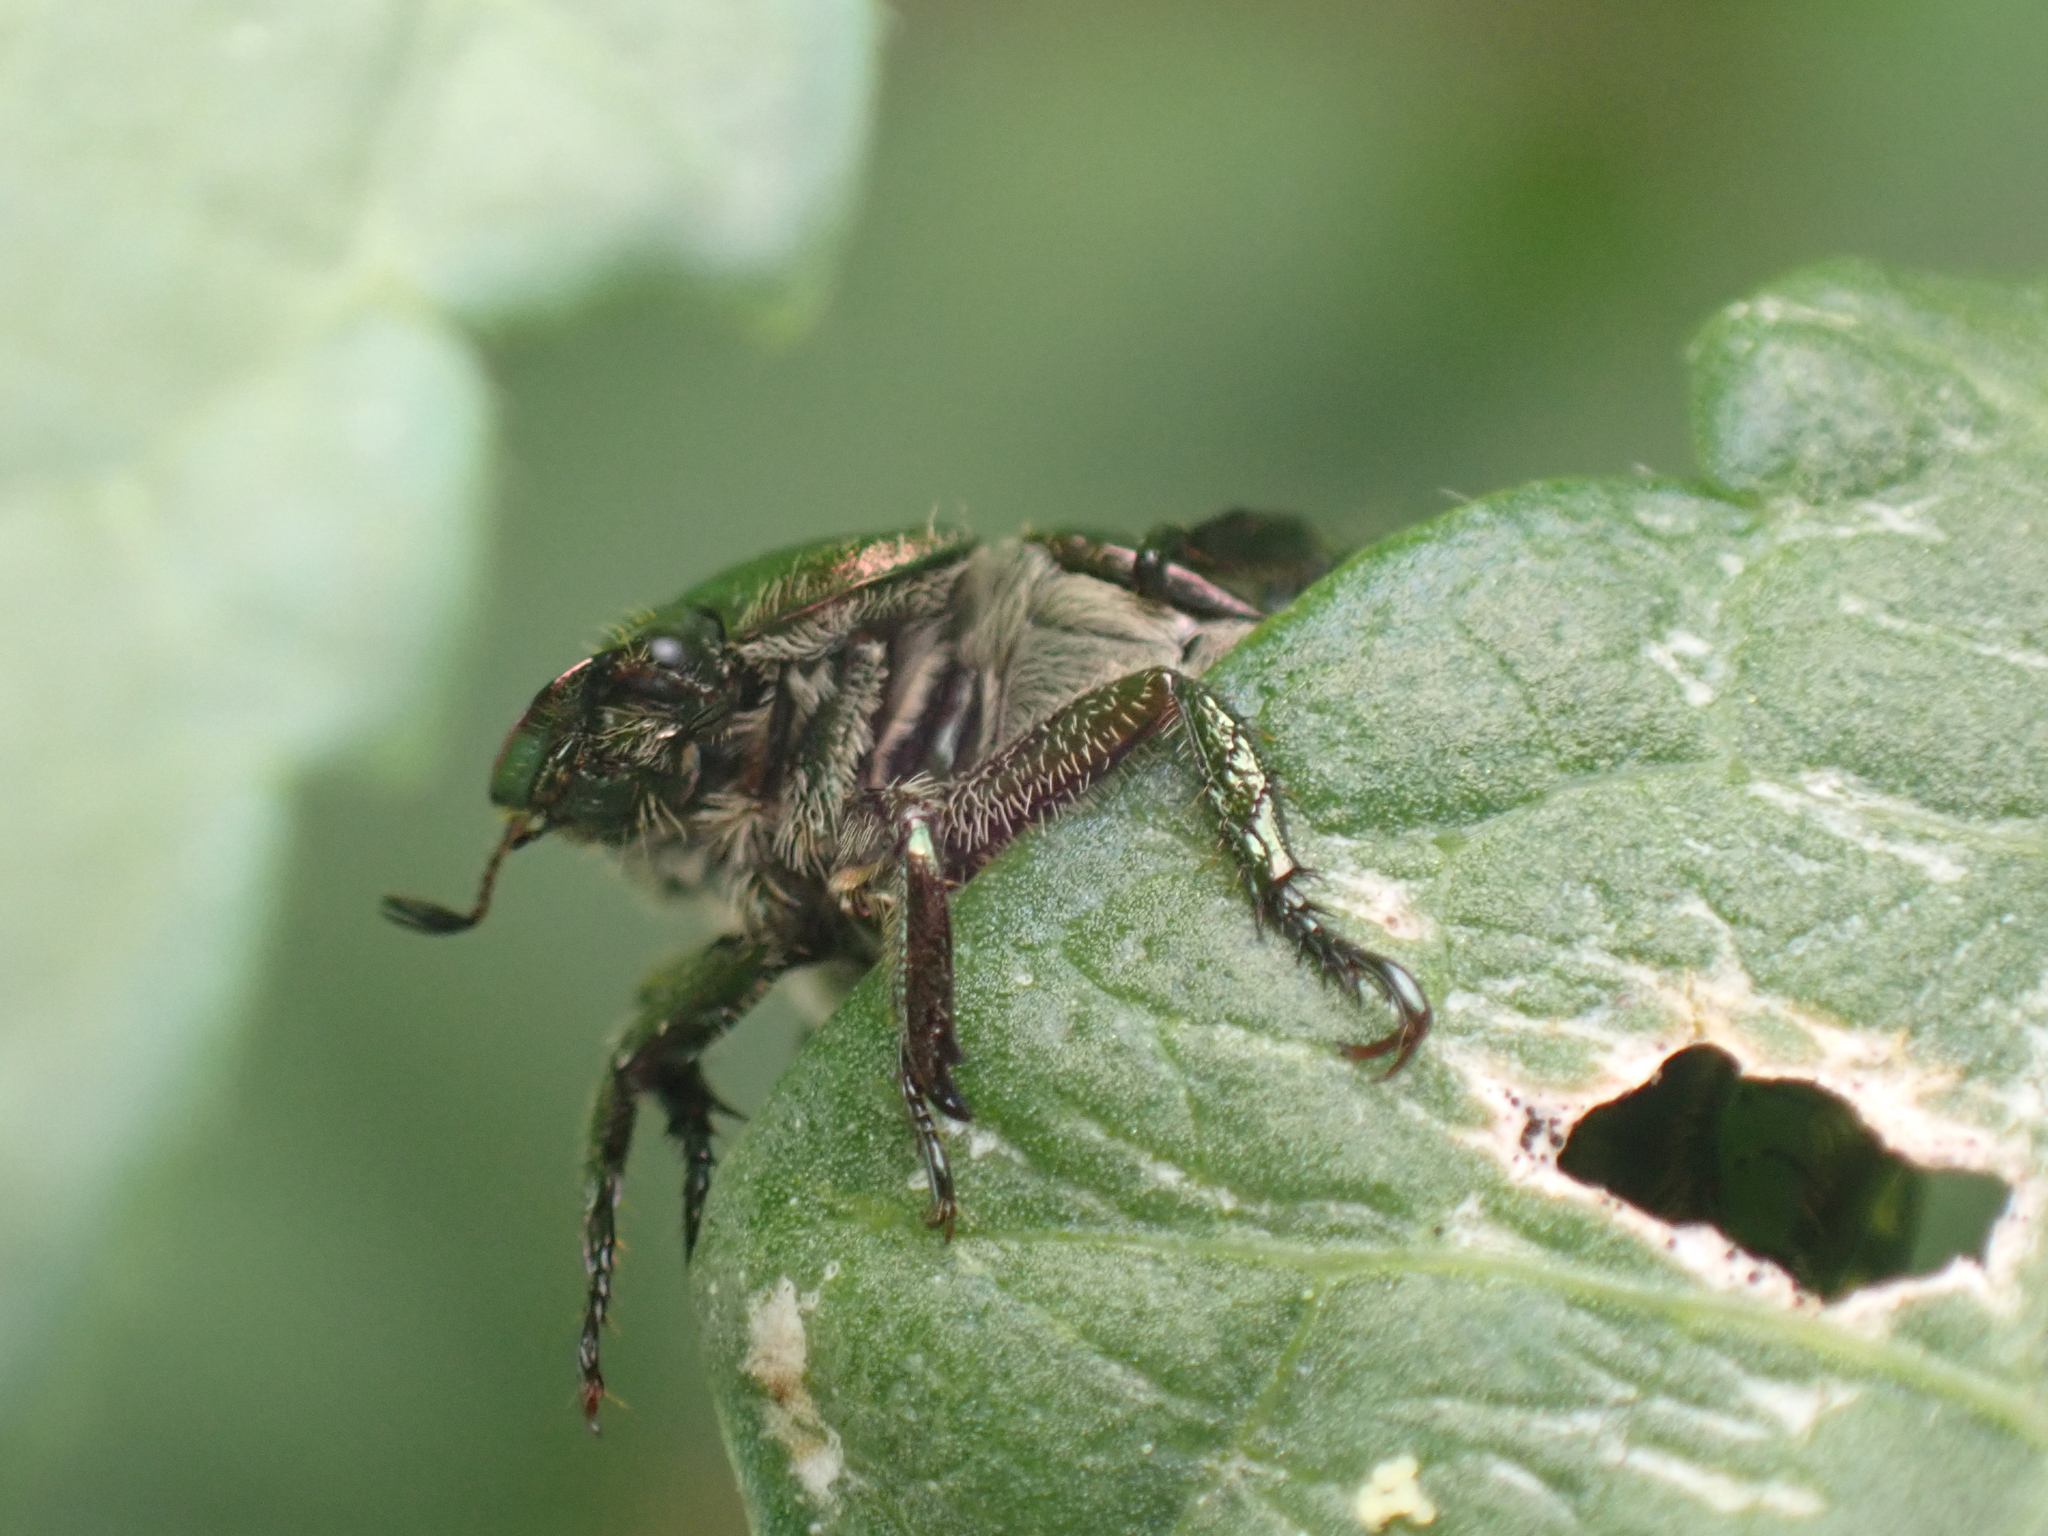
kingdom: Animalia
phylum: Arthropoda
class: Insecta
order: Coleoptera
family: Scarabaeidae
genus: Popillia
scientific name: Popillia japonica
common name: Japanese beetle
